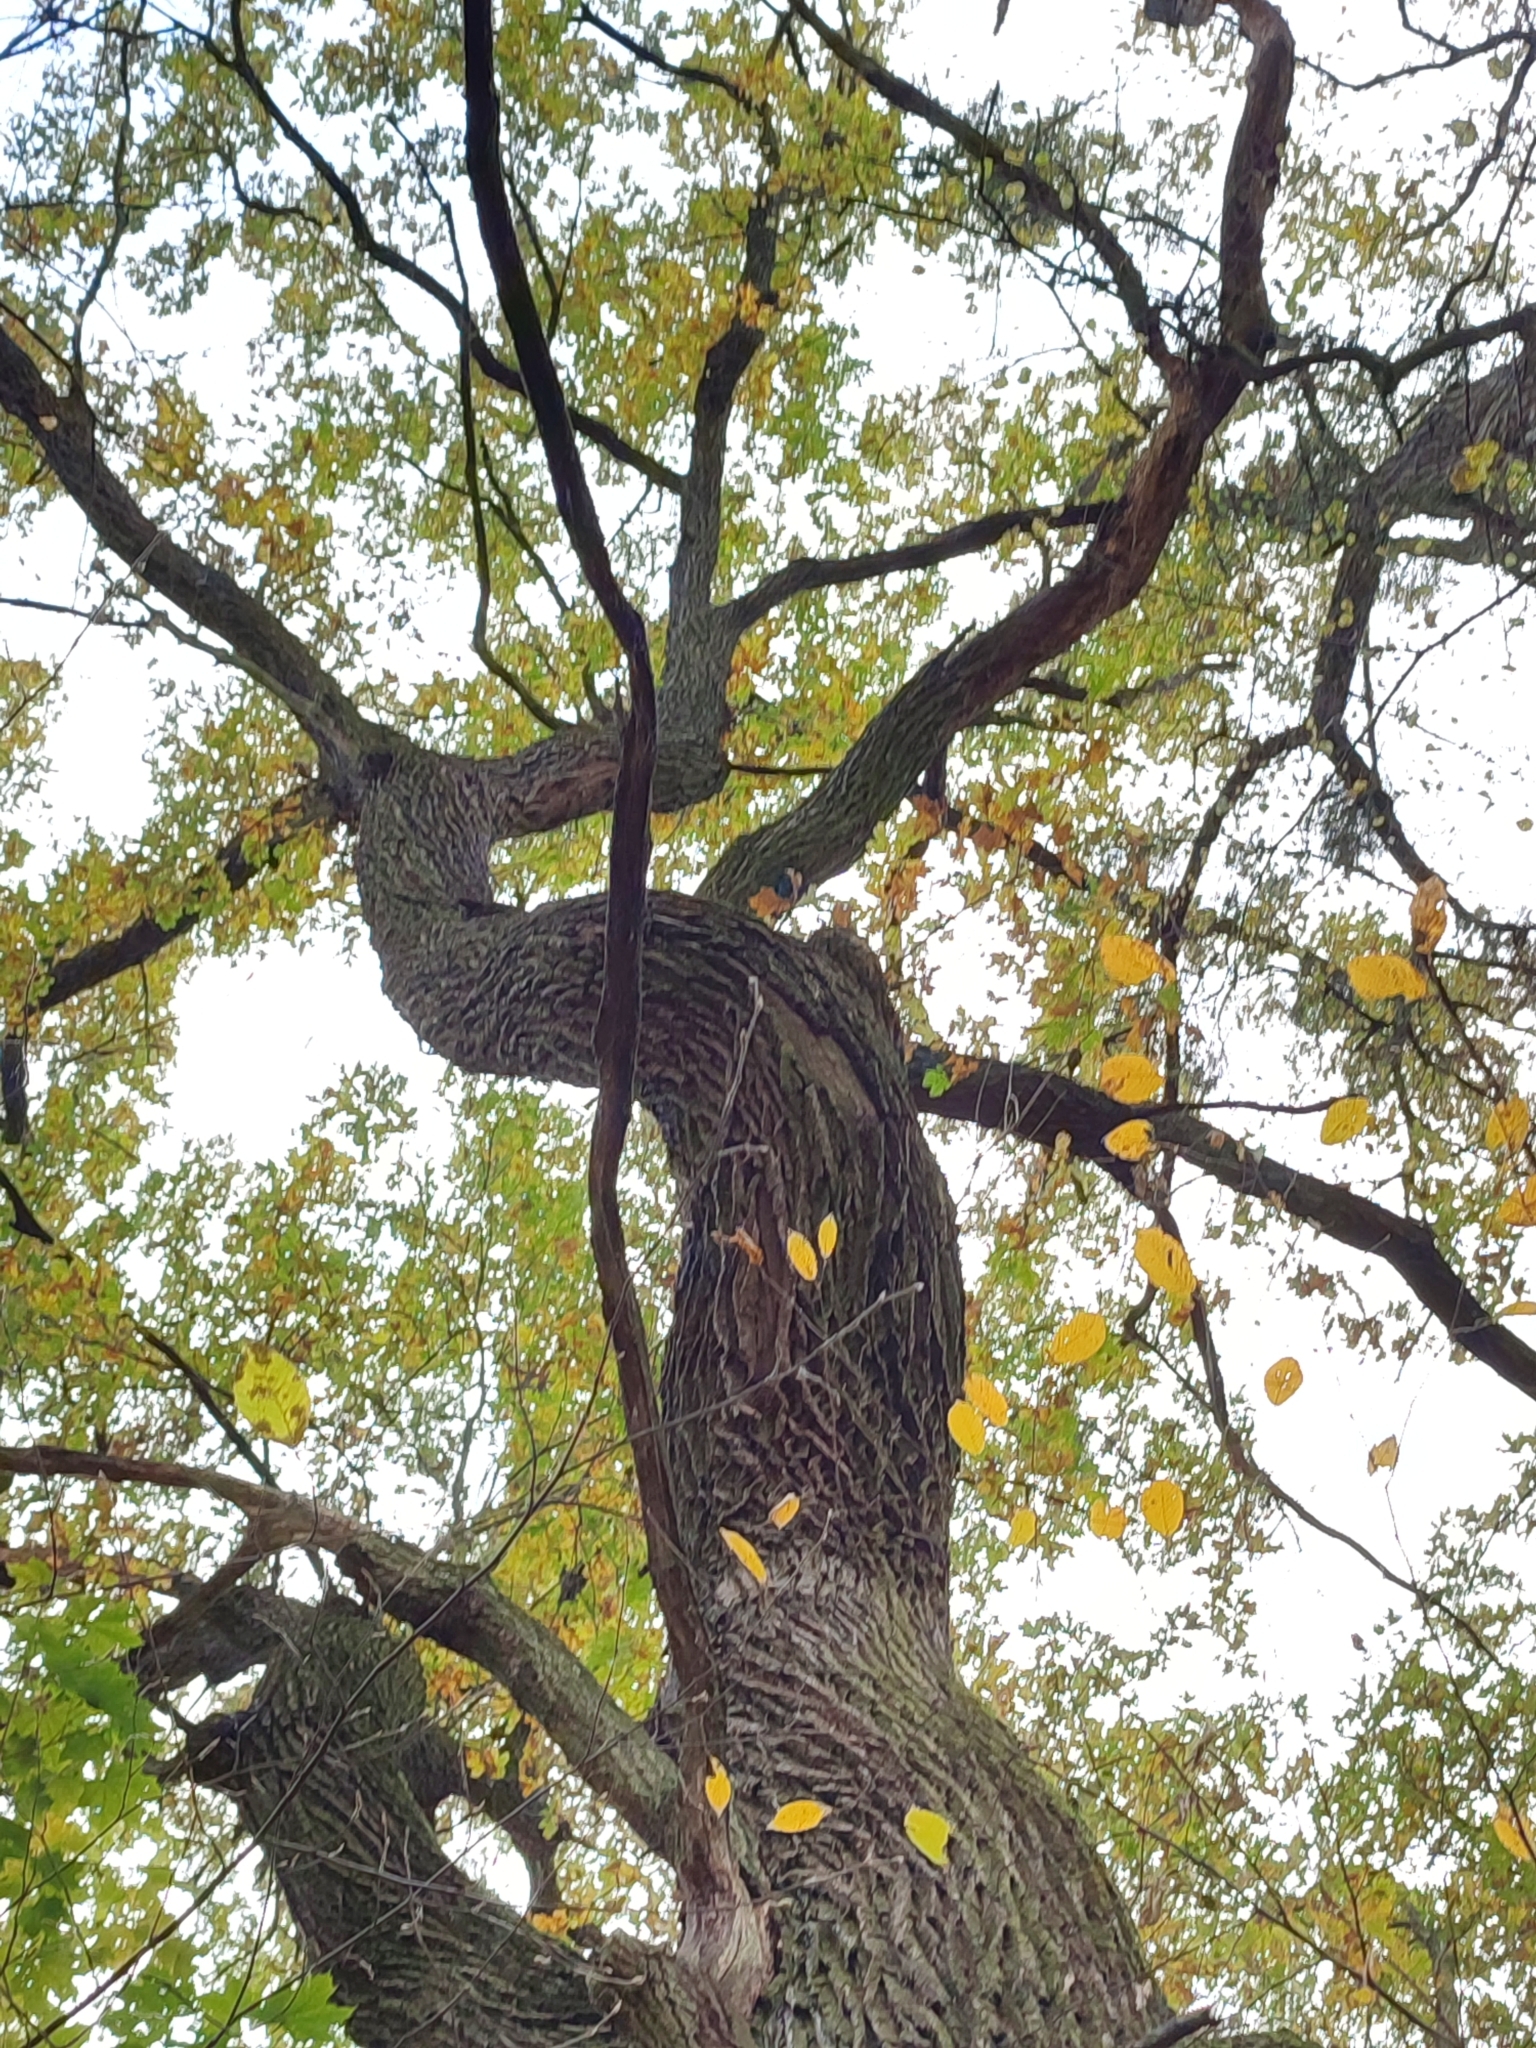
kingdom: Plantae
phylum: Tracheophyta
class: Magnoliopsida
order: Fagales
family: Fagaceae
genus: Quercus
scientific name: Quercus robur
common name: Pedunculate oak
